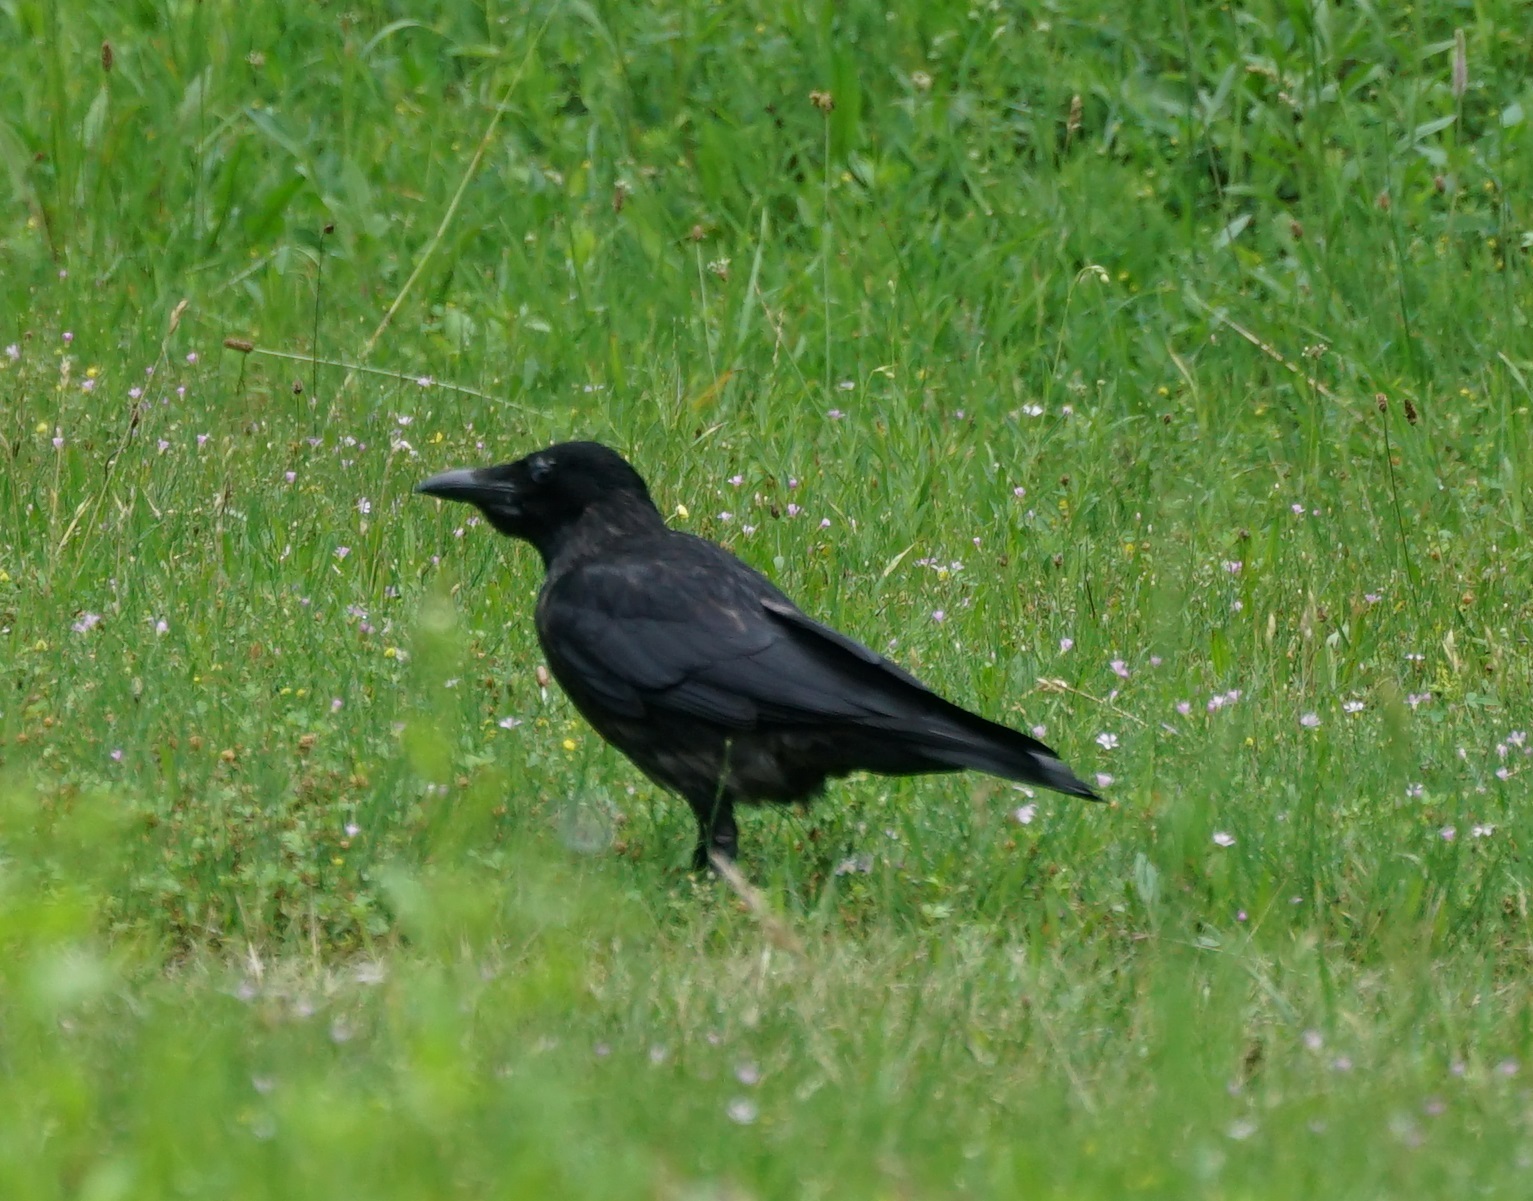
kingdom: Animalia
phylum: Chordata
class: Aves
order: Passeriformes
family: Corvidae
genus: Corvus
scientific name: Corvus
